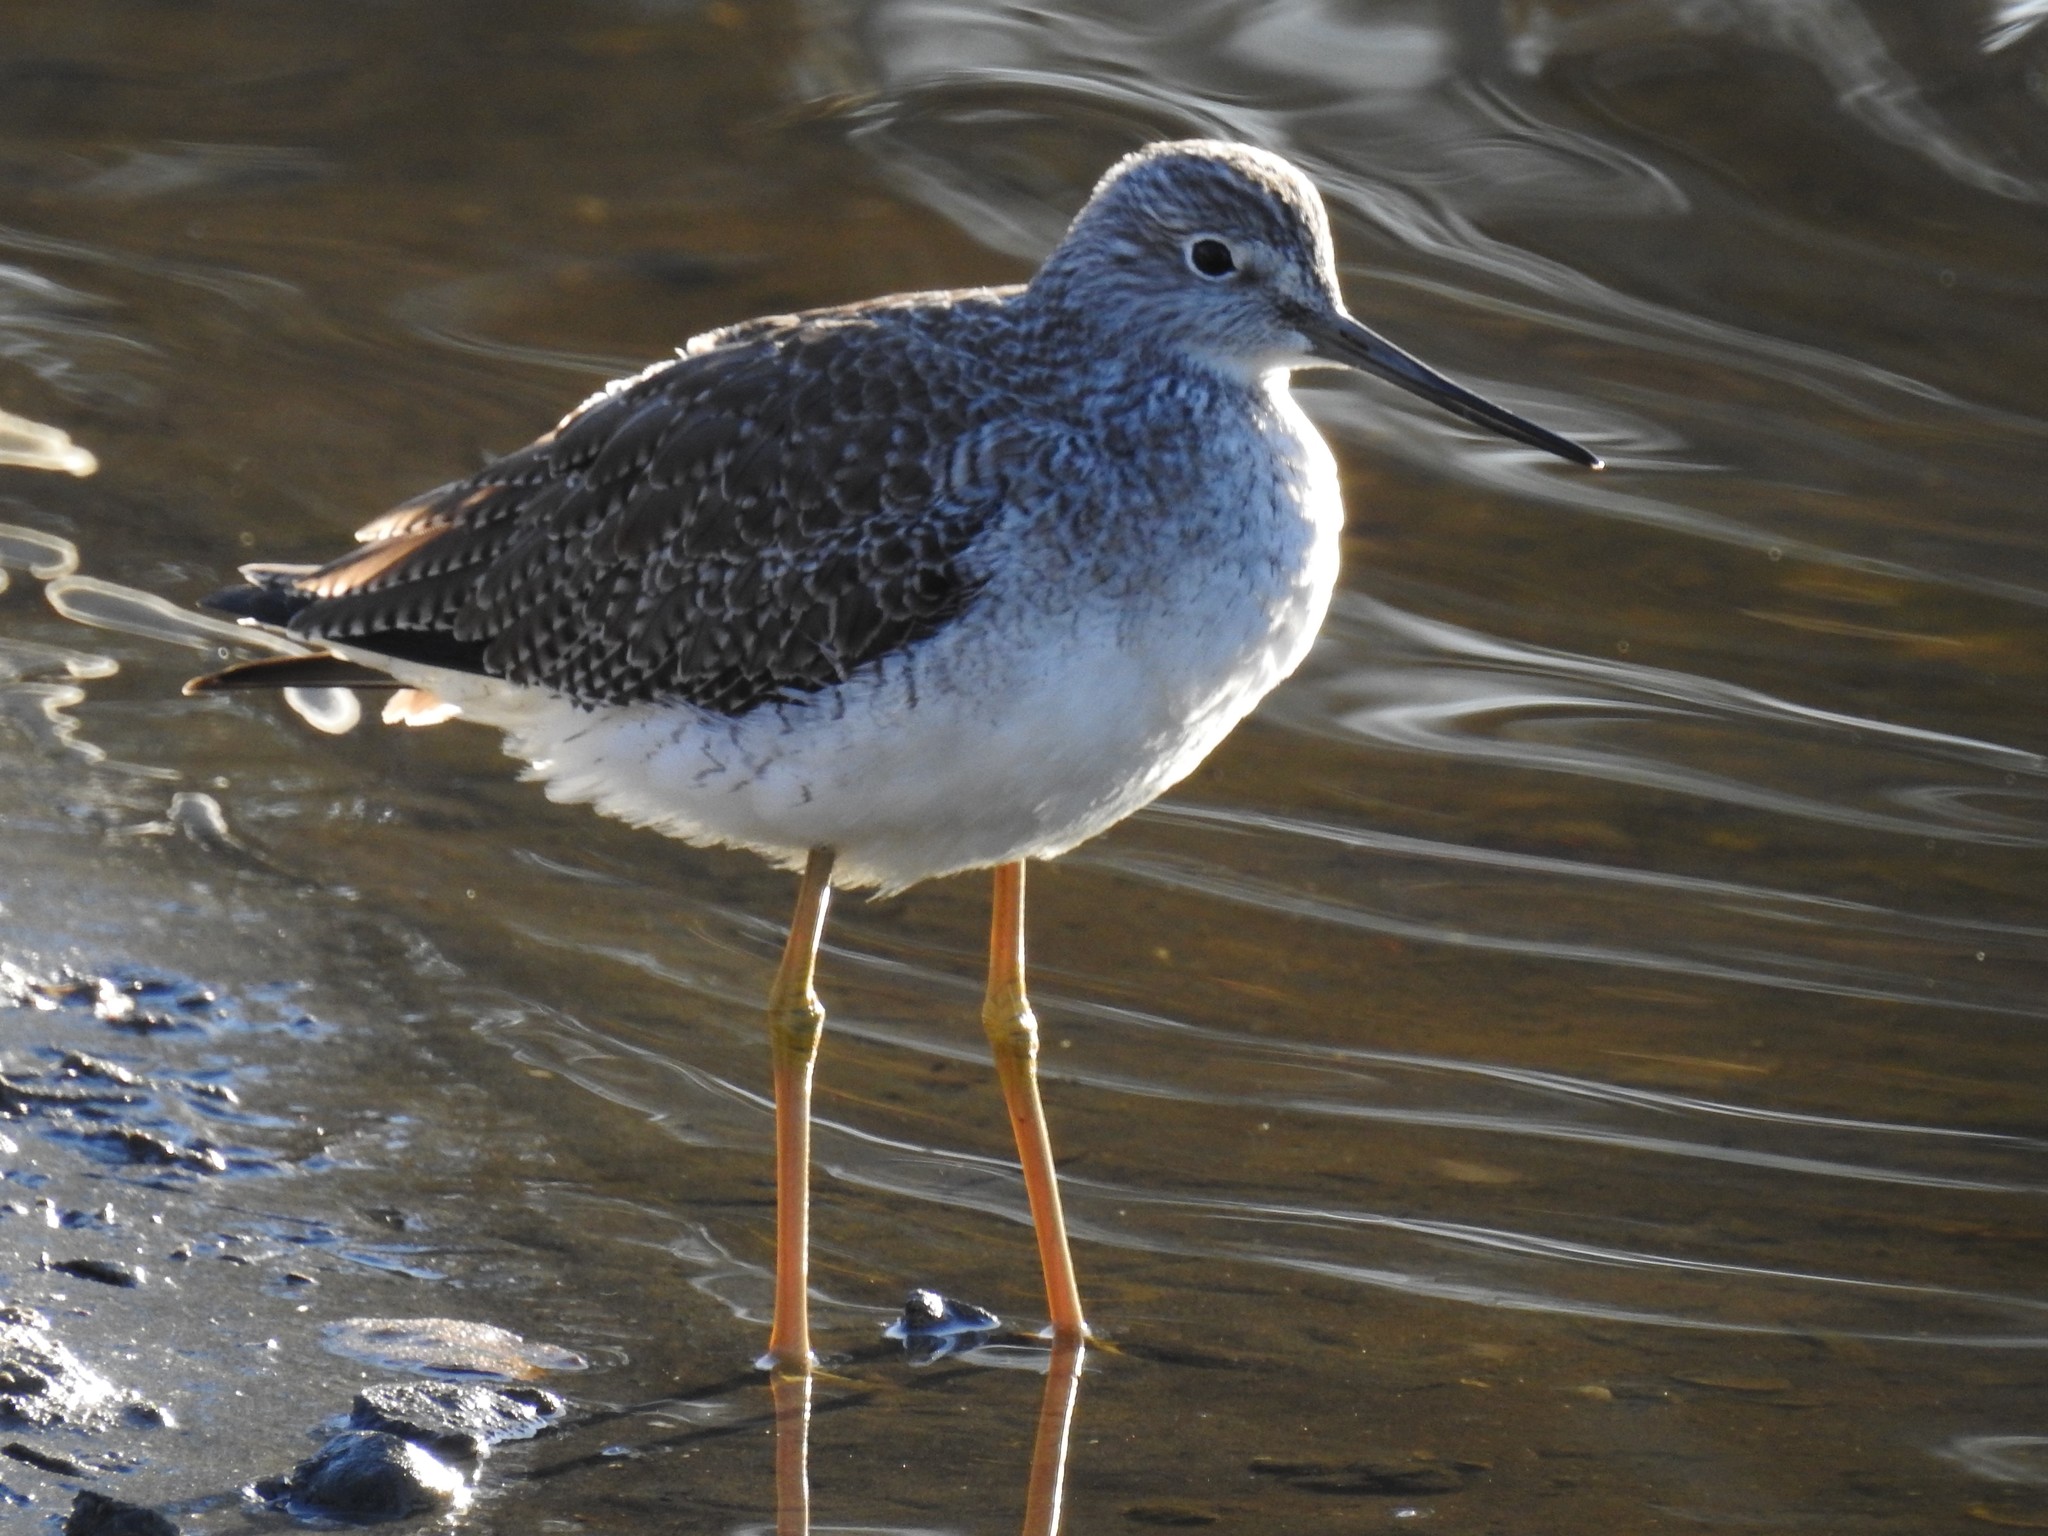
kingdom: Animalia
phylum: Chordata
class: Aves
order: Charadriiformes
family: Scolopacidae
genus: Tringa
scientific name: Tringa melanoleuca
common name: Greater yellowlegs
